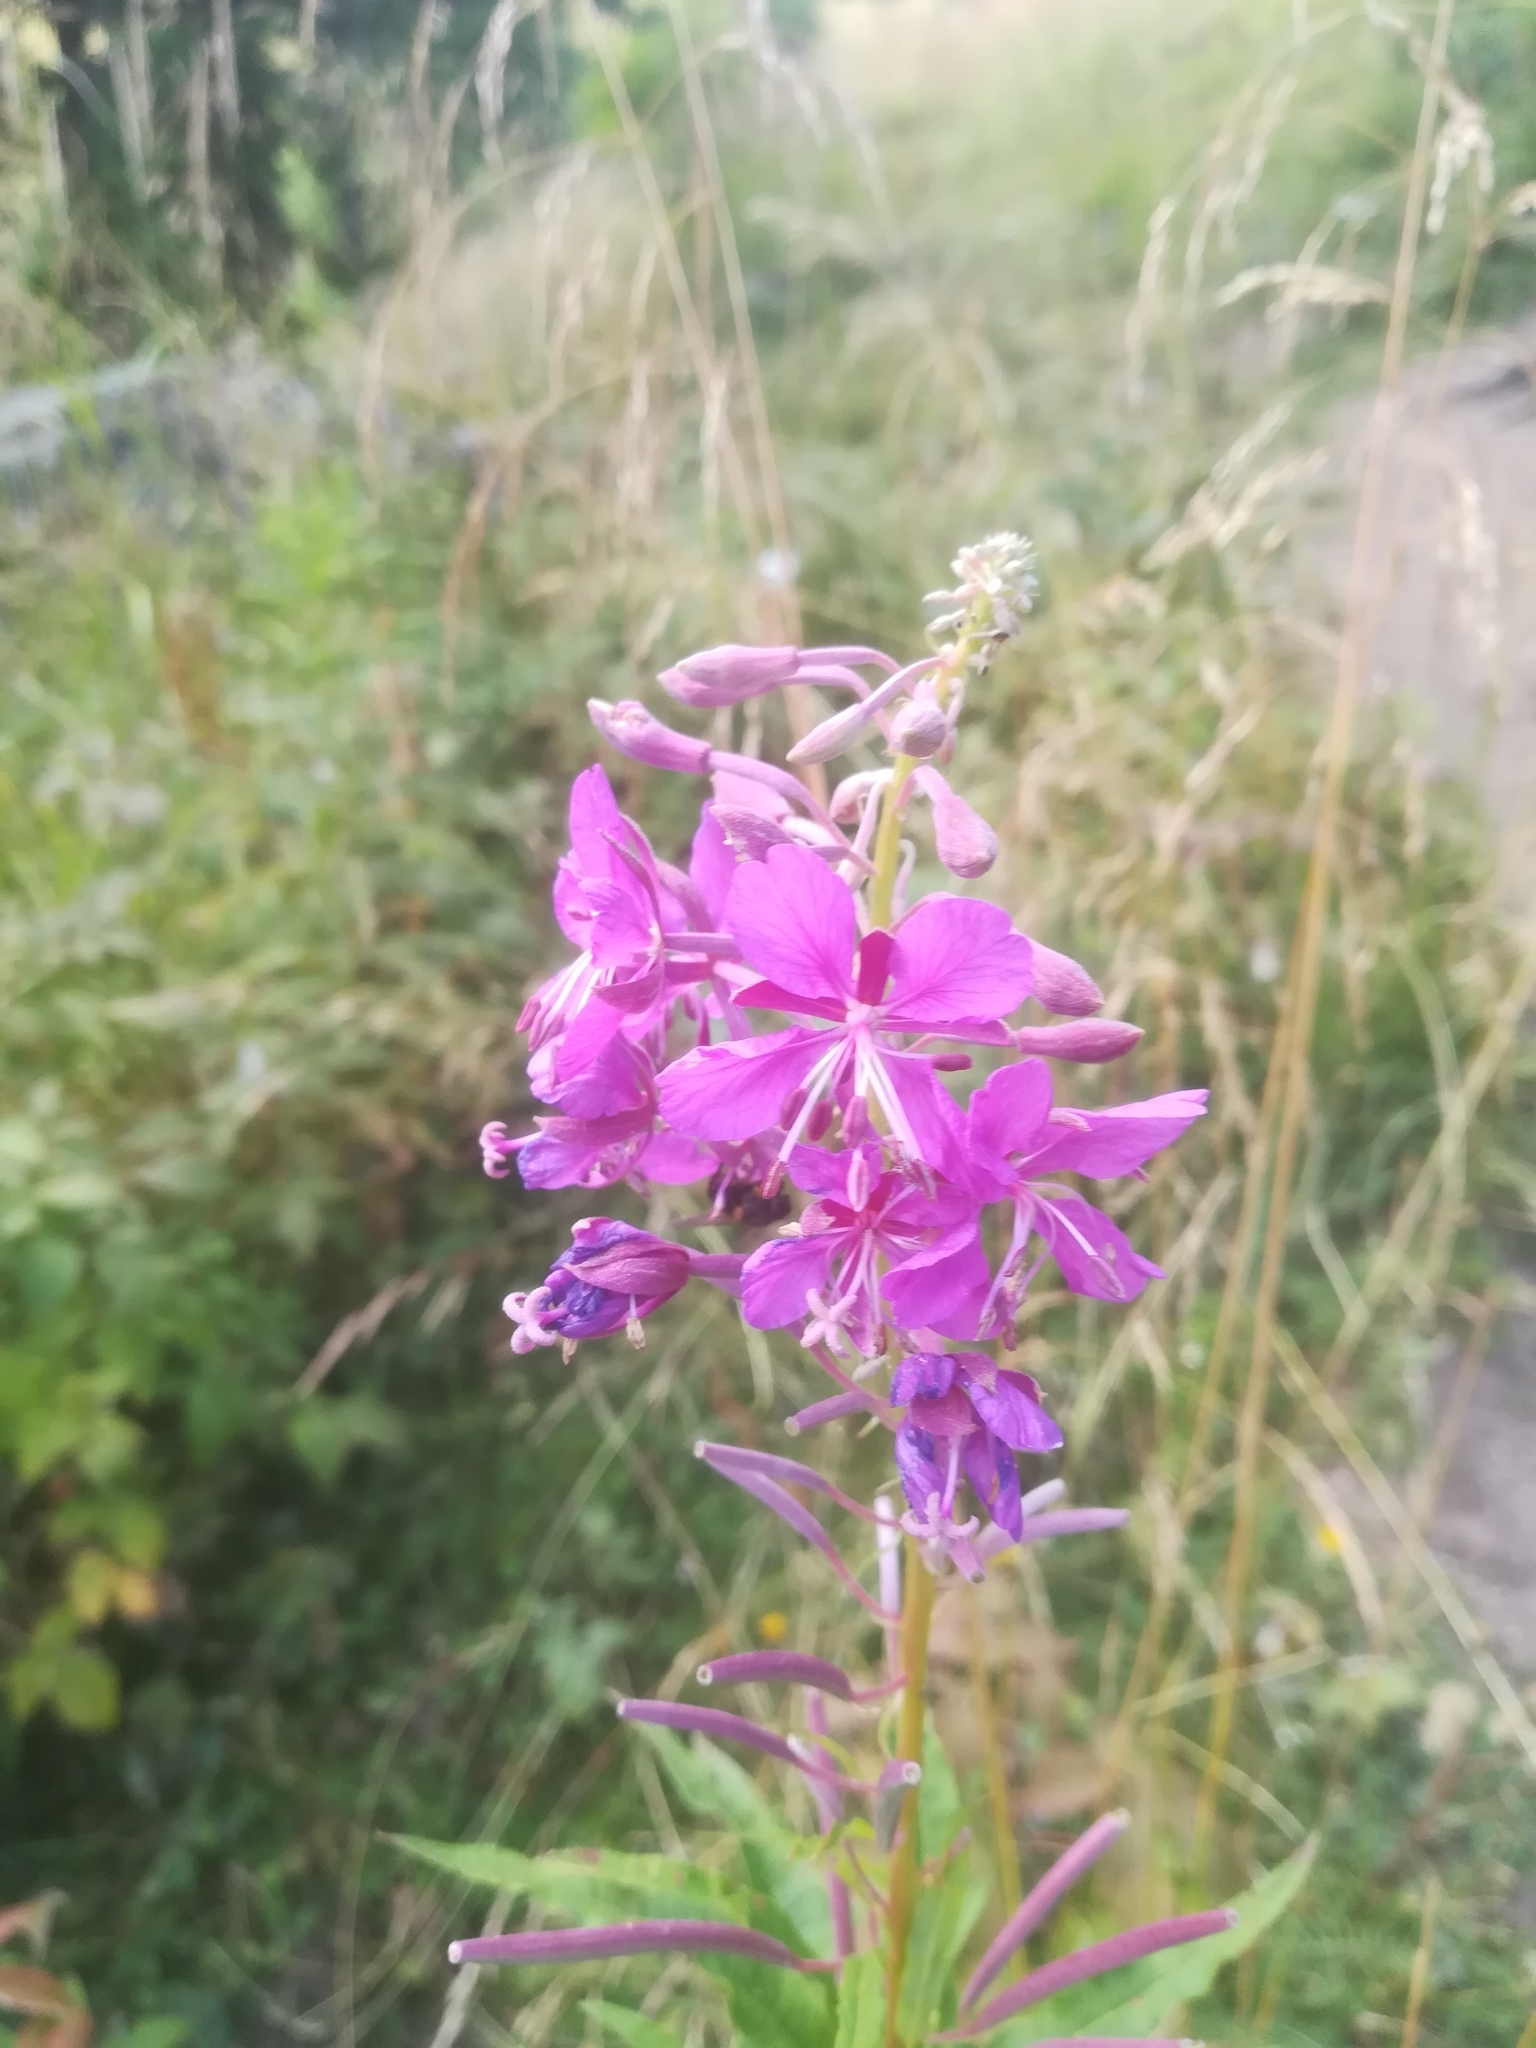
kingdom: Plantae
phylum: Tracheophyta
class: Magnoliopsida
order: Myrtales
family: Onagraceae
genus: Chamaenerion
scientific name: Chamaenerion angustifolium
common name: Fireweed
